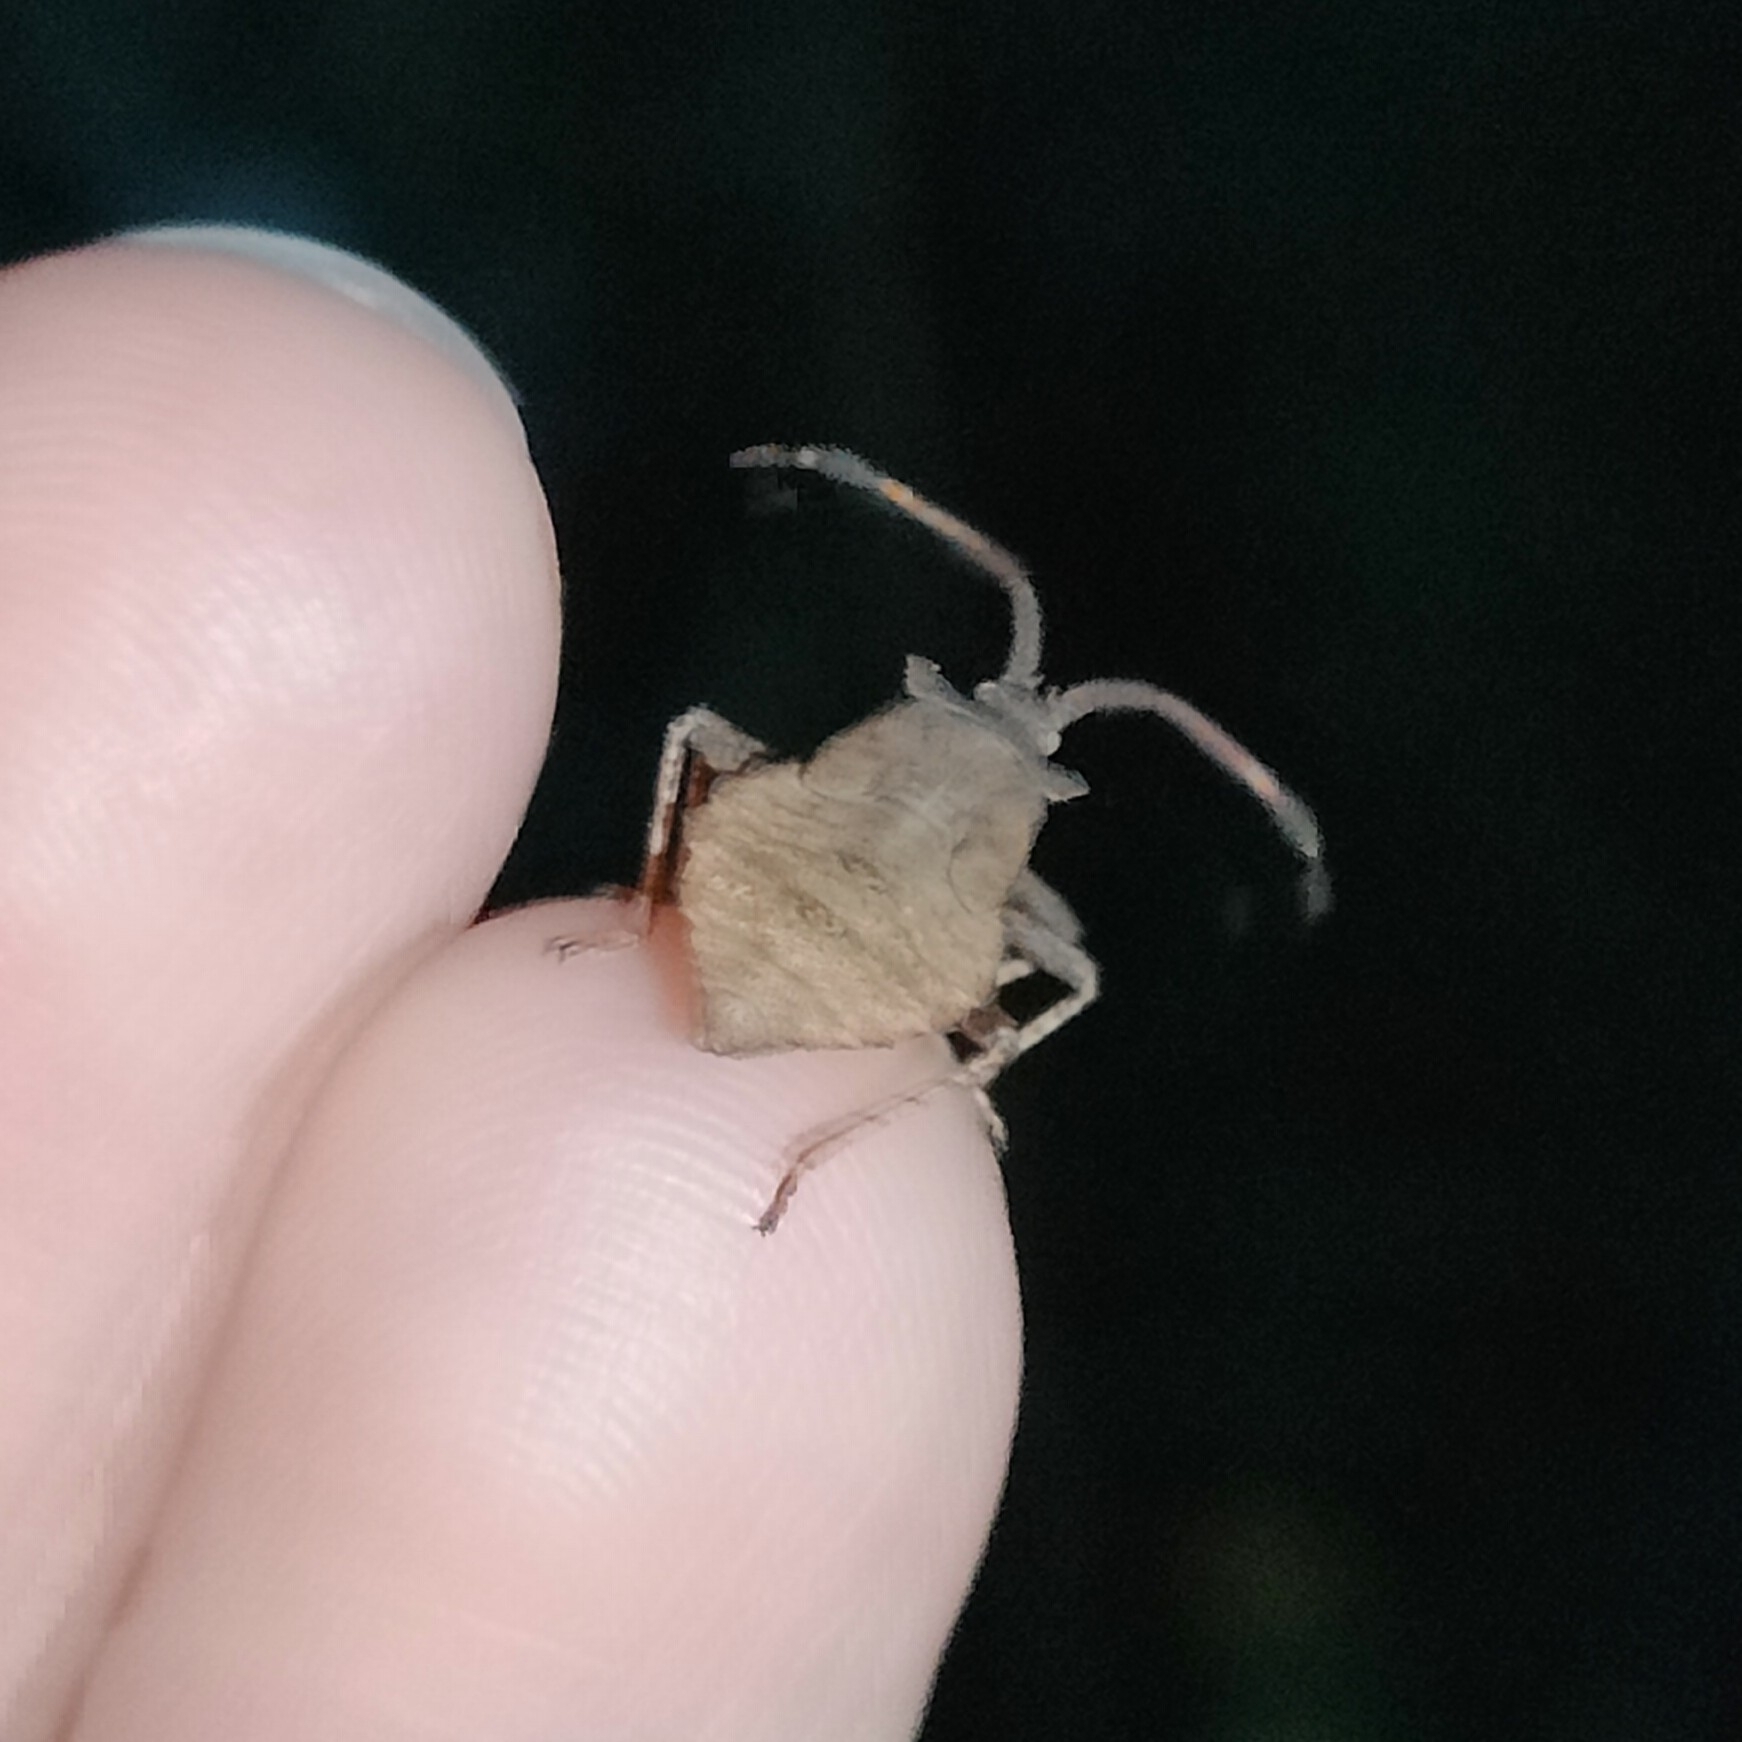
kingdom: Animalia
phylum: Arthropoda
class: Insecta
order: Hemiptera
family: Coreidae
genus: Coreus
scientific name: Coreus marginatus
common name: Dock bug
